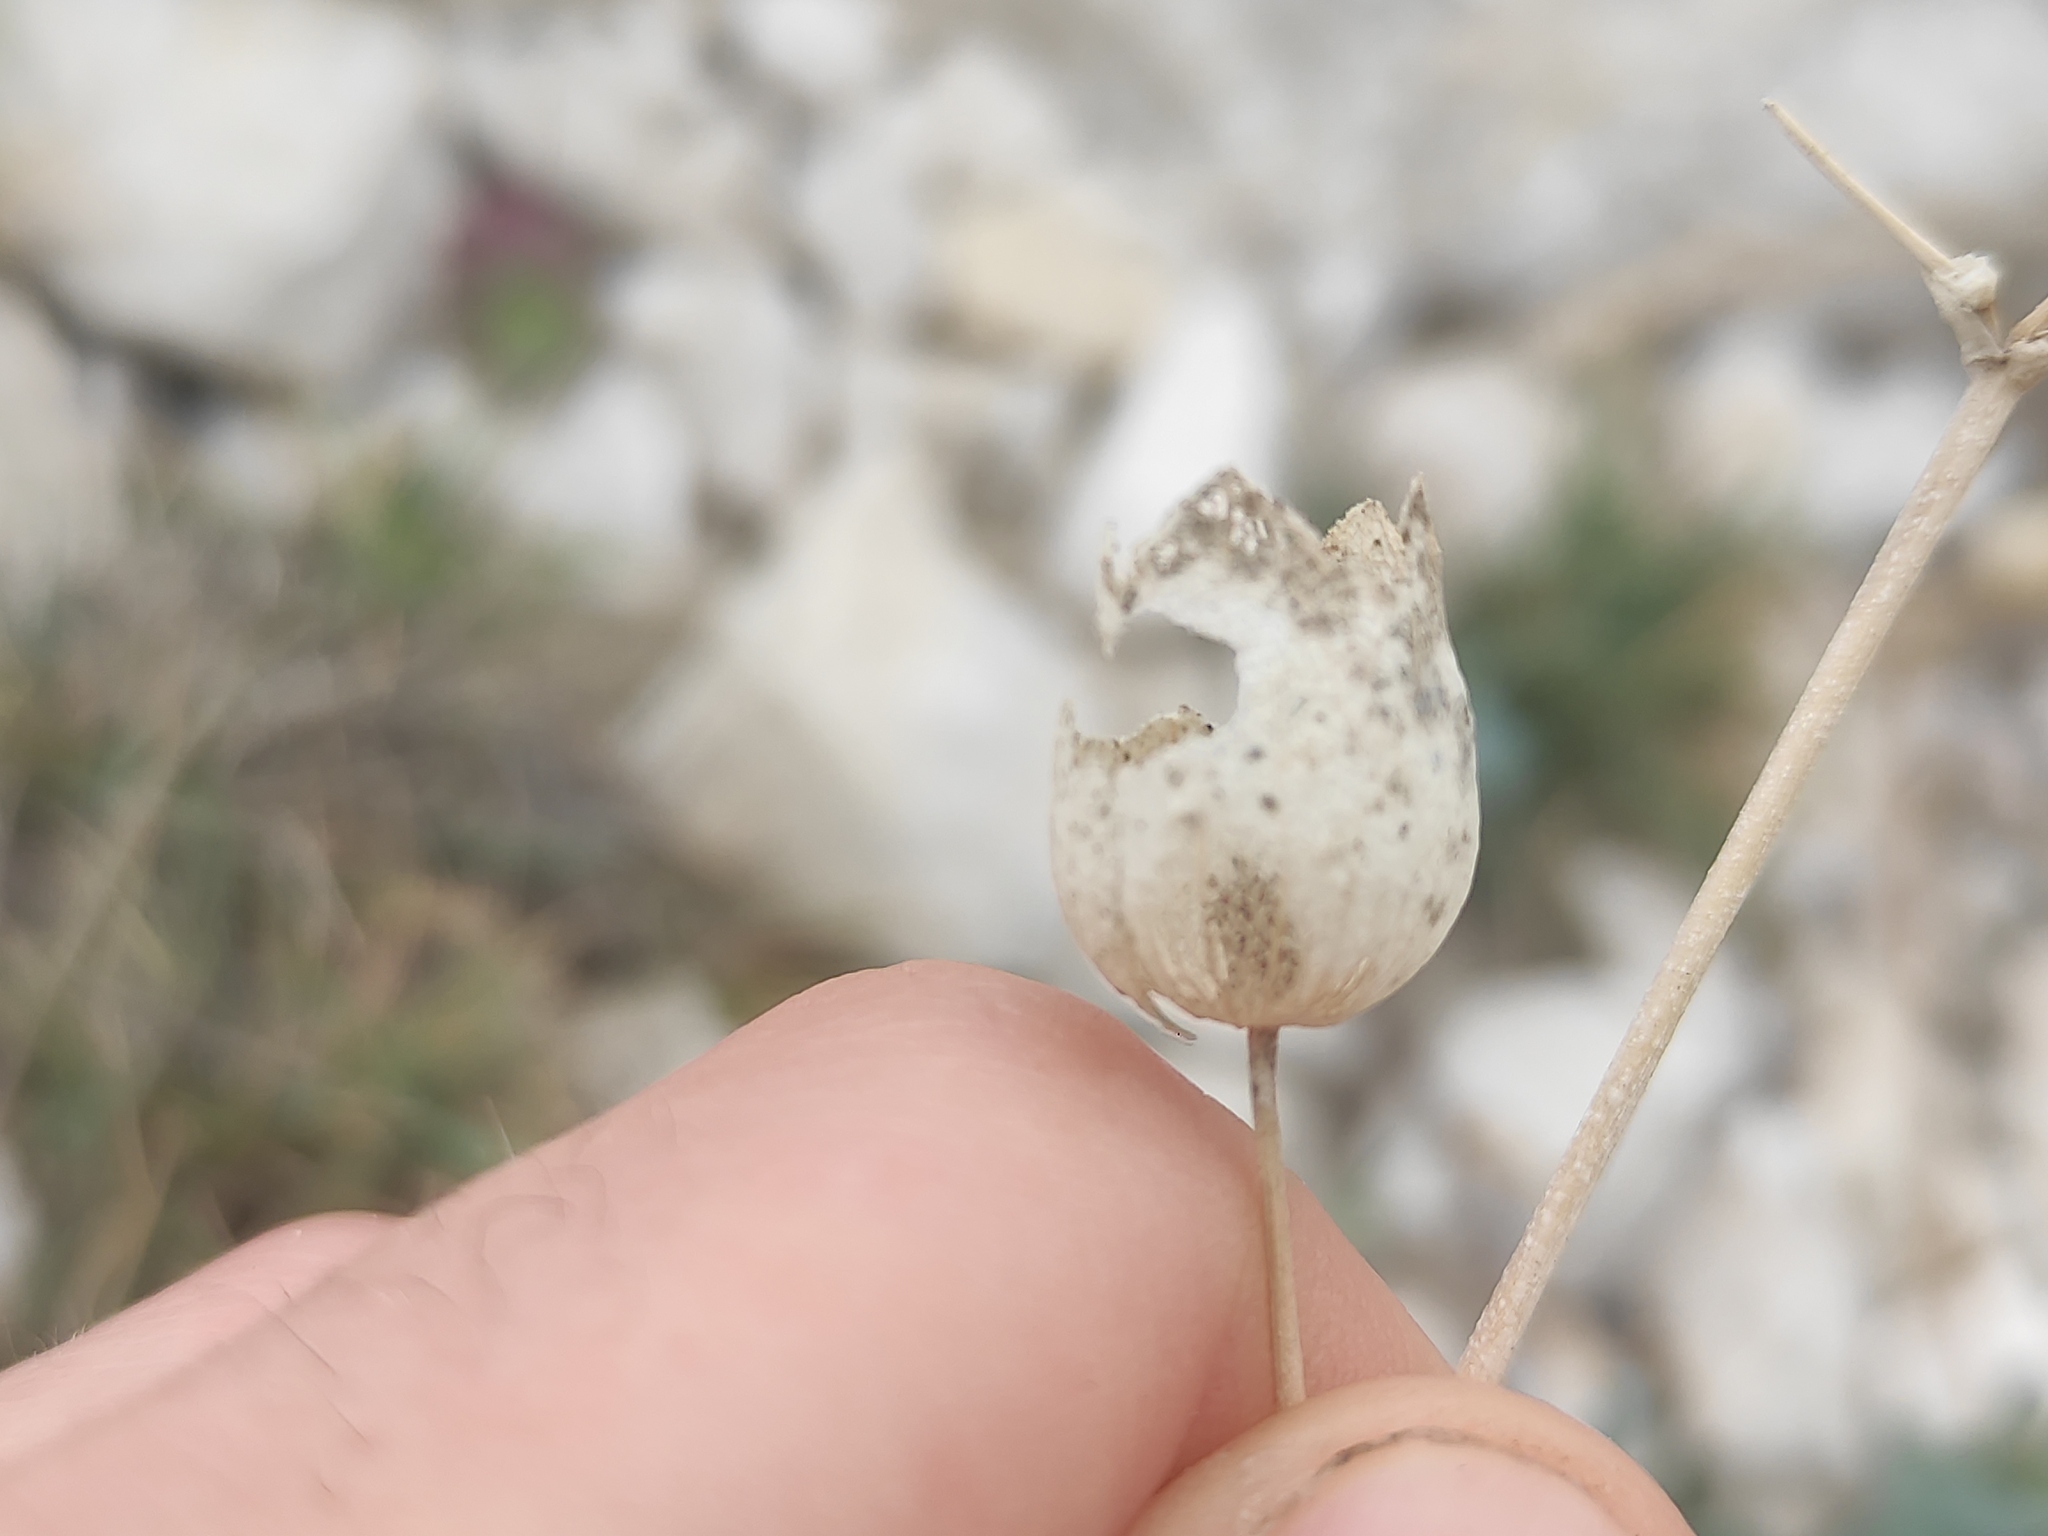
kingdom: Plantae
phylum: Tracheophyta
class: Magnoliopsida
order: Caryophyllales
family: Caryophyllaceae
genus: Silene
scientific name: Silene vulgaris
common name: Bladder campion
